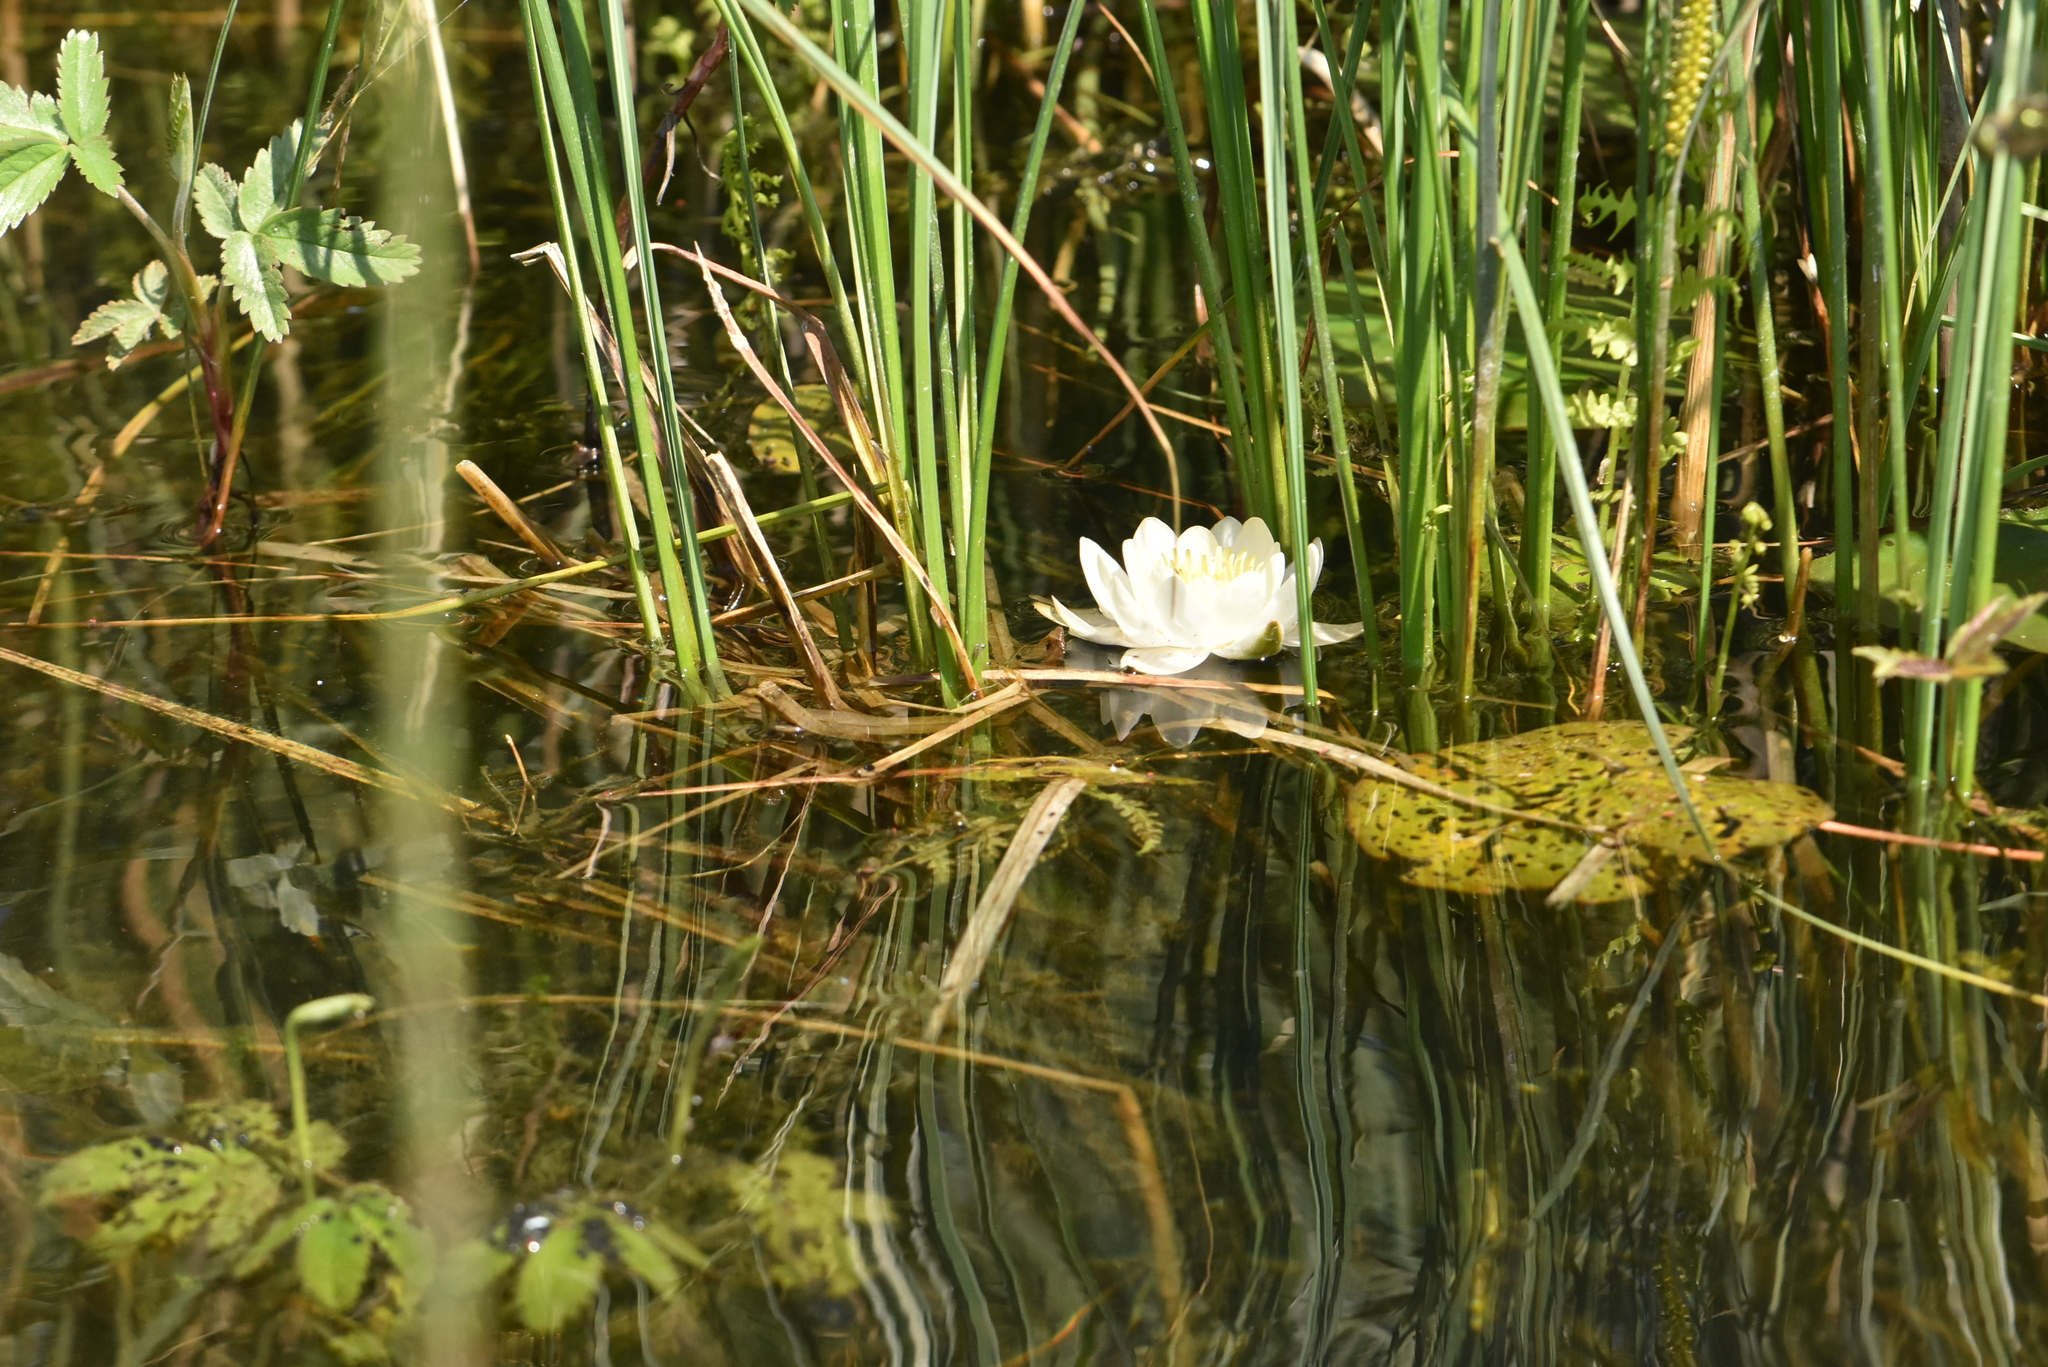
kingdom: Plantae
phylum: Tracheophyta
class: Magnoliopsida
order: Nymphaeales
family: Nymphaeaceae
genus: Nymphaea
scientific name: Nymphaea candida
